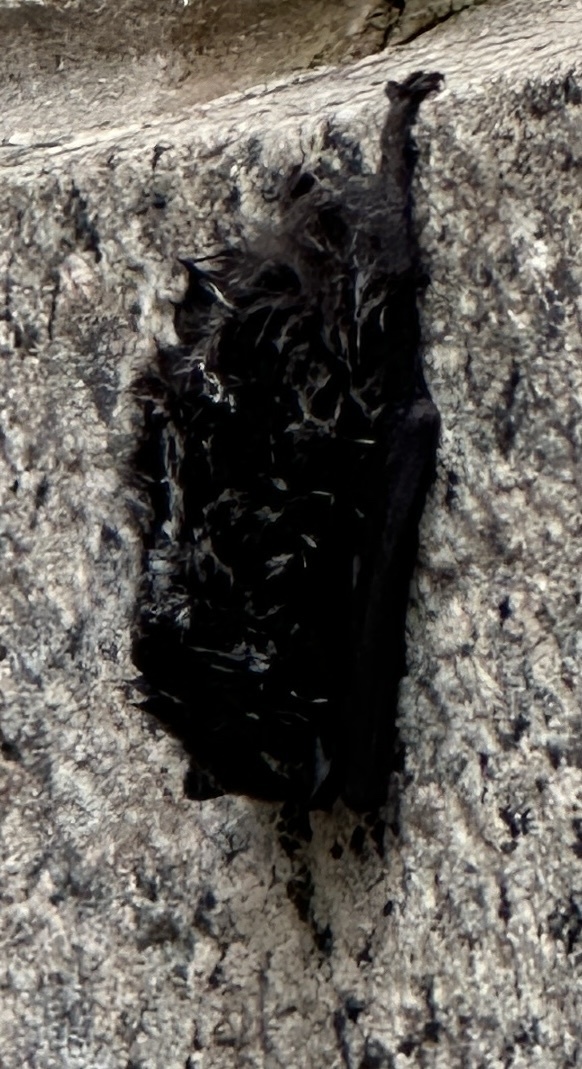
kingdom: Animalia
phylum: Chordata
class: Mammalia
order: Chiroptera
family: Vespertilionidae
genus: Lasionycteris
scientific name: Lasionycteris noctivagans
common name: Silver-haired bat
